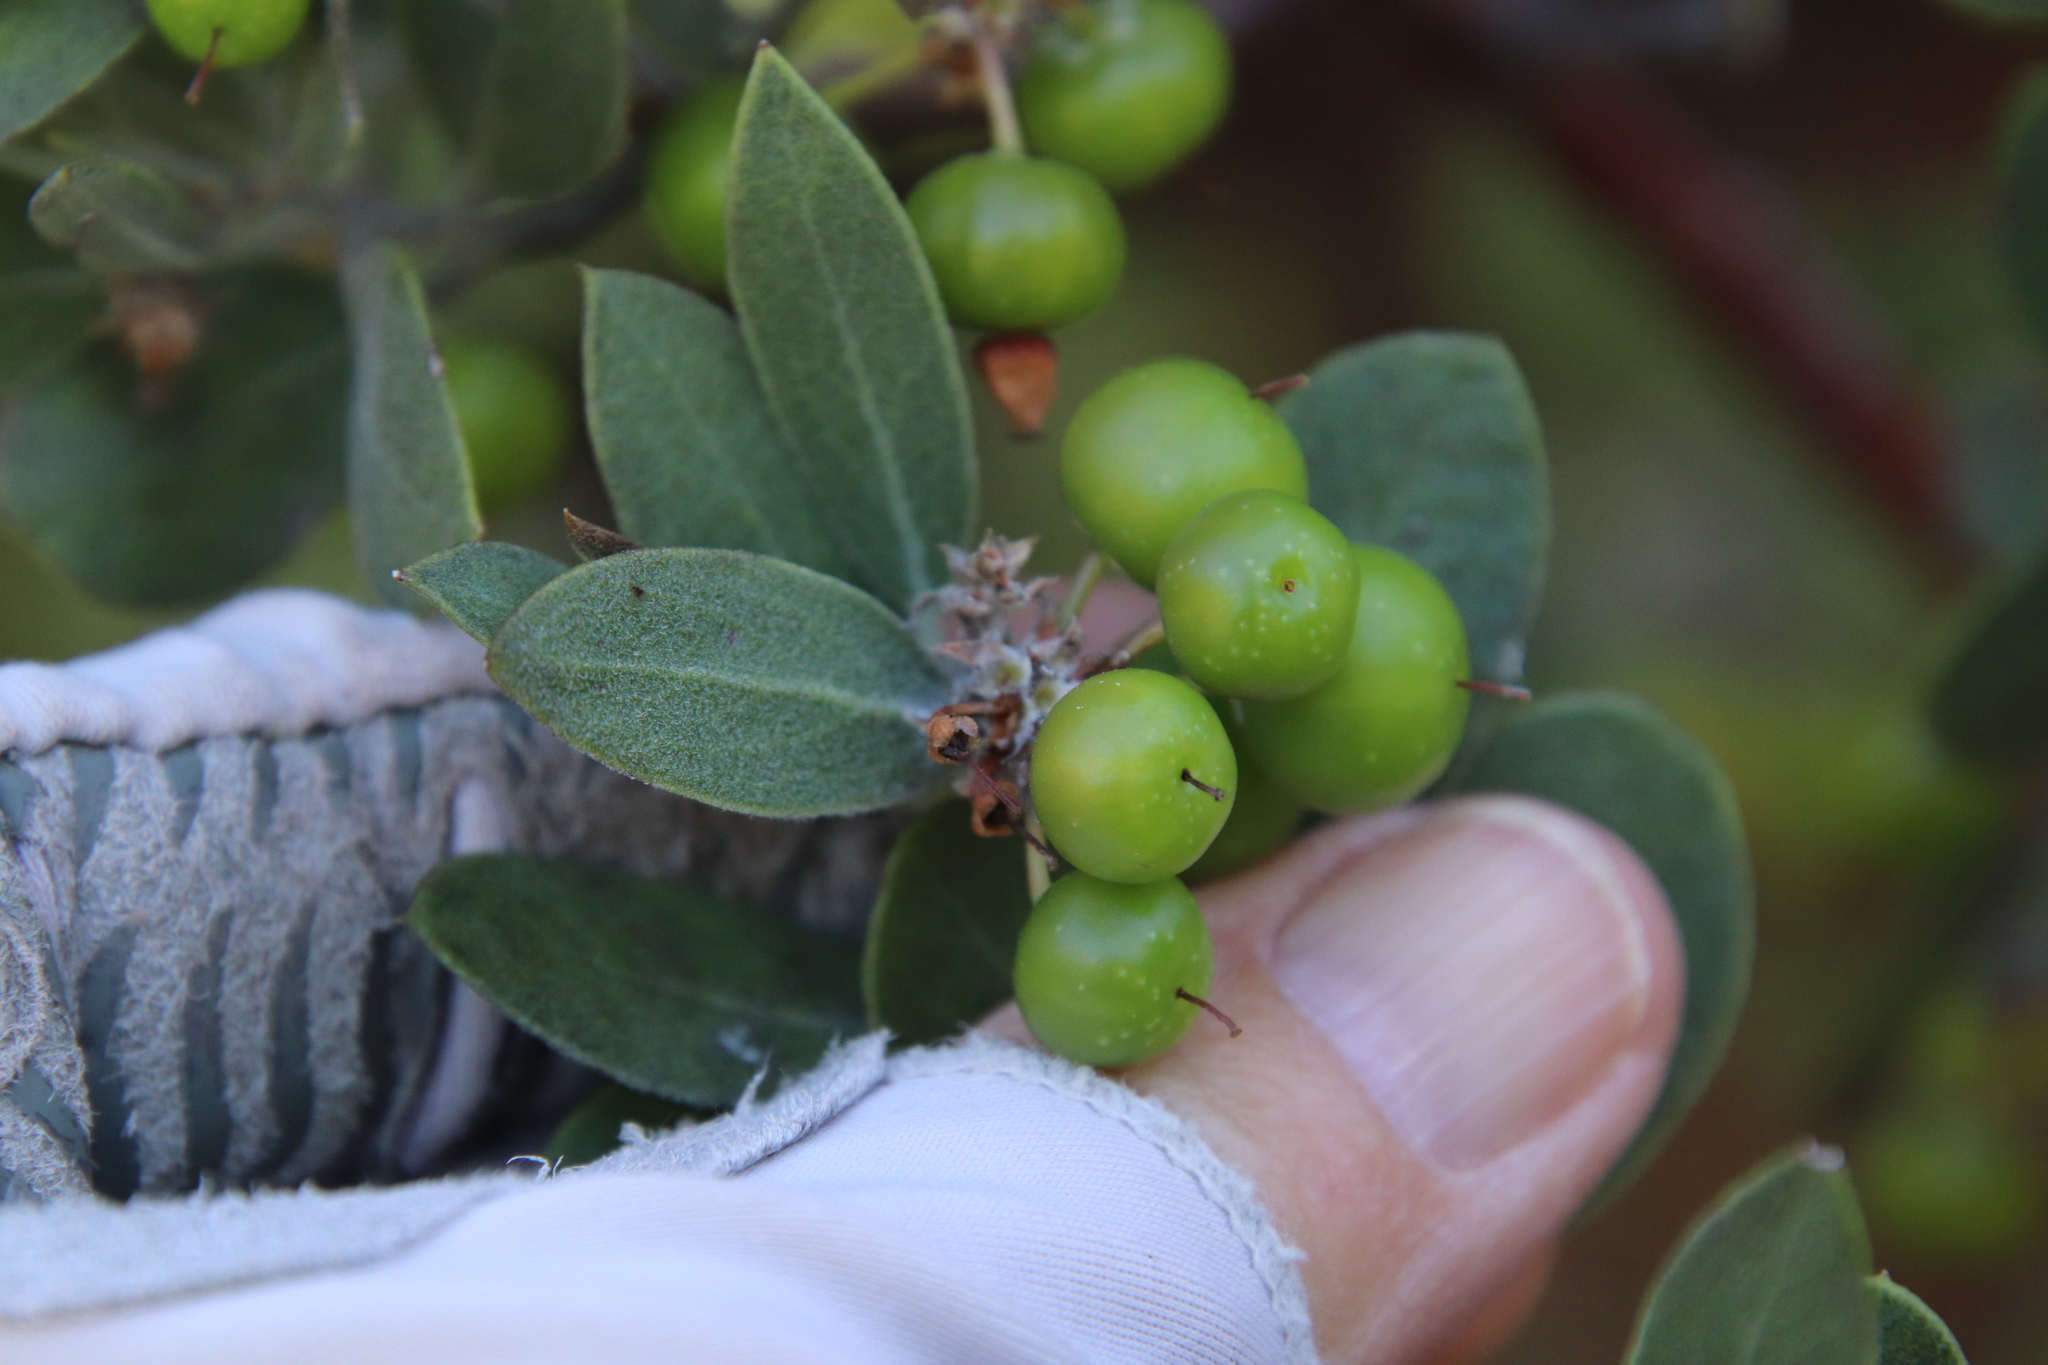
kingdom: Plantae
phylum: Tracheophyta
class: Magnoliopsida
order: Ericales
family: Ericaceae
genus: Arctostaphylos
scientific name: Arctostaphylos pungens
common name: Mexican manzanita
